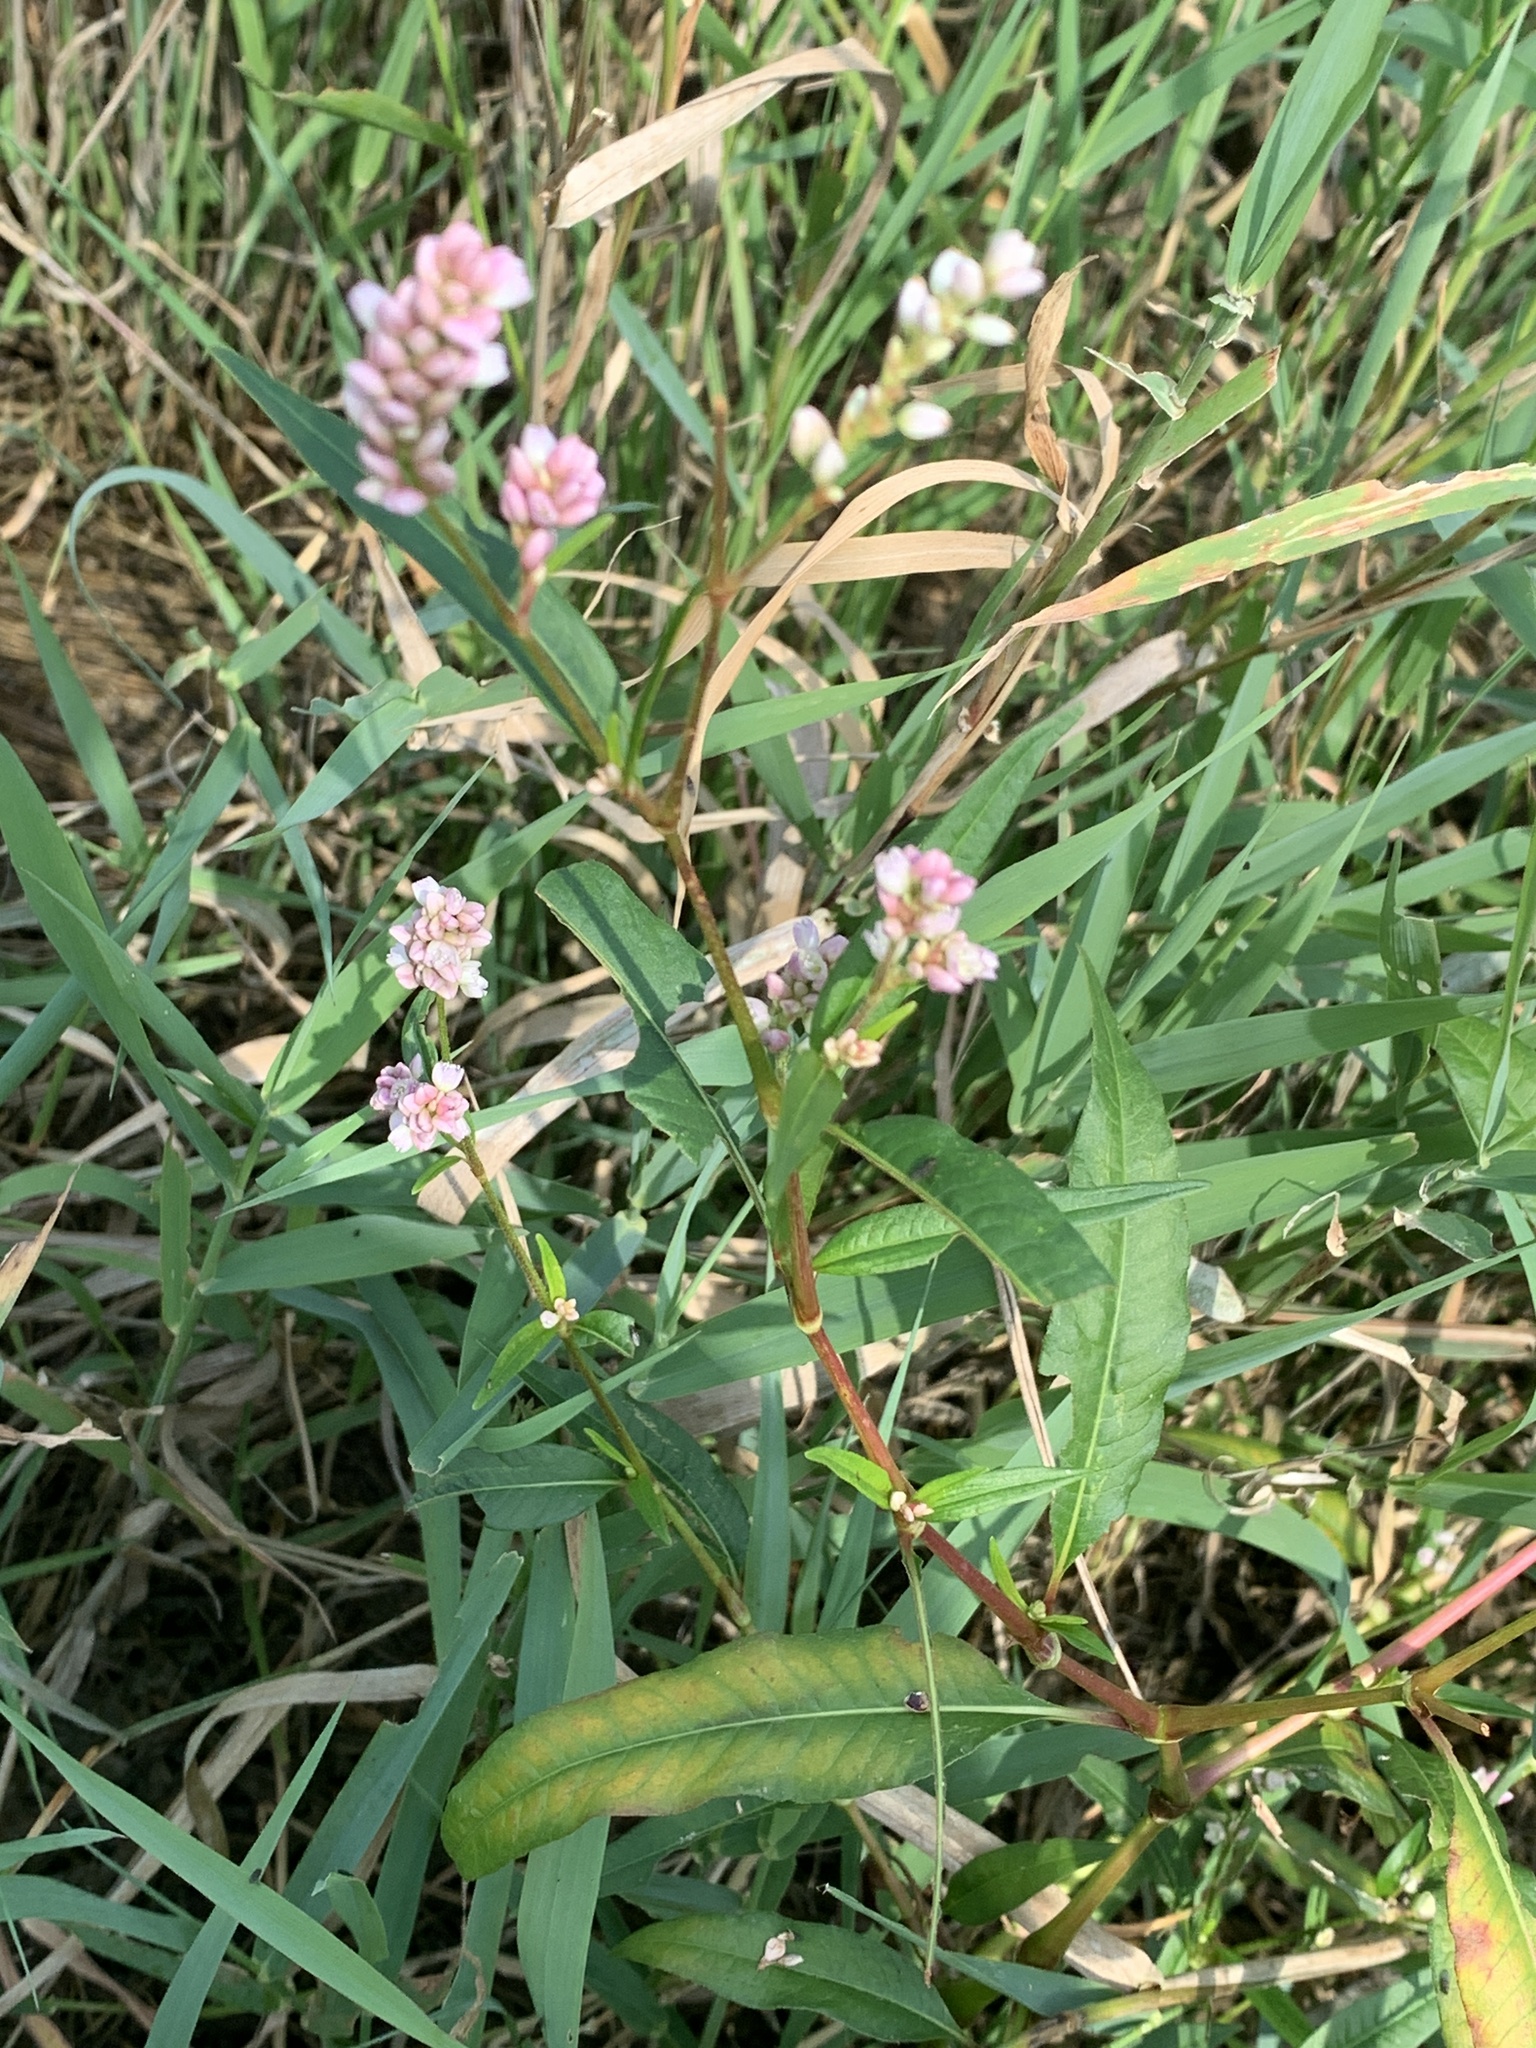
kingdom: Plantae
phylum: Tracheophyta
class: Magnoliopsida
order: Caryophyllales
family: Polygonaceae
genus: Persicaria
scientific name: Persicaria pensylvanica
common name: Pinkweed
